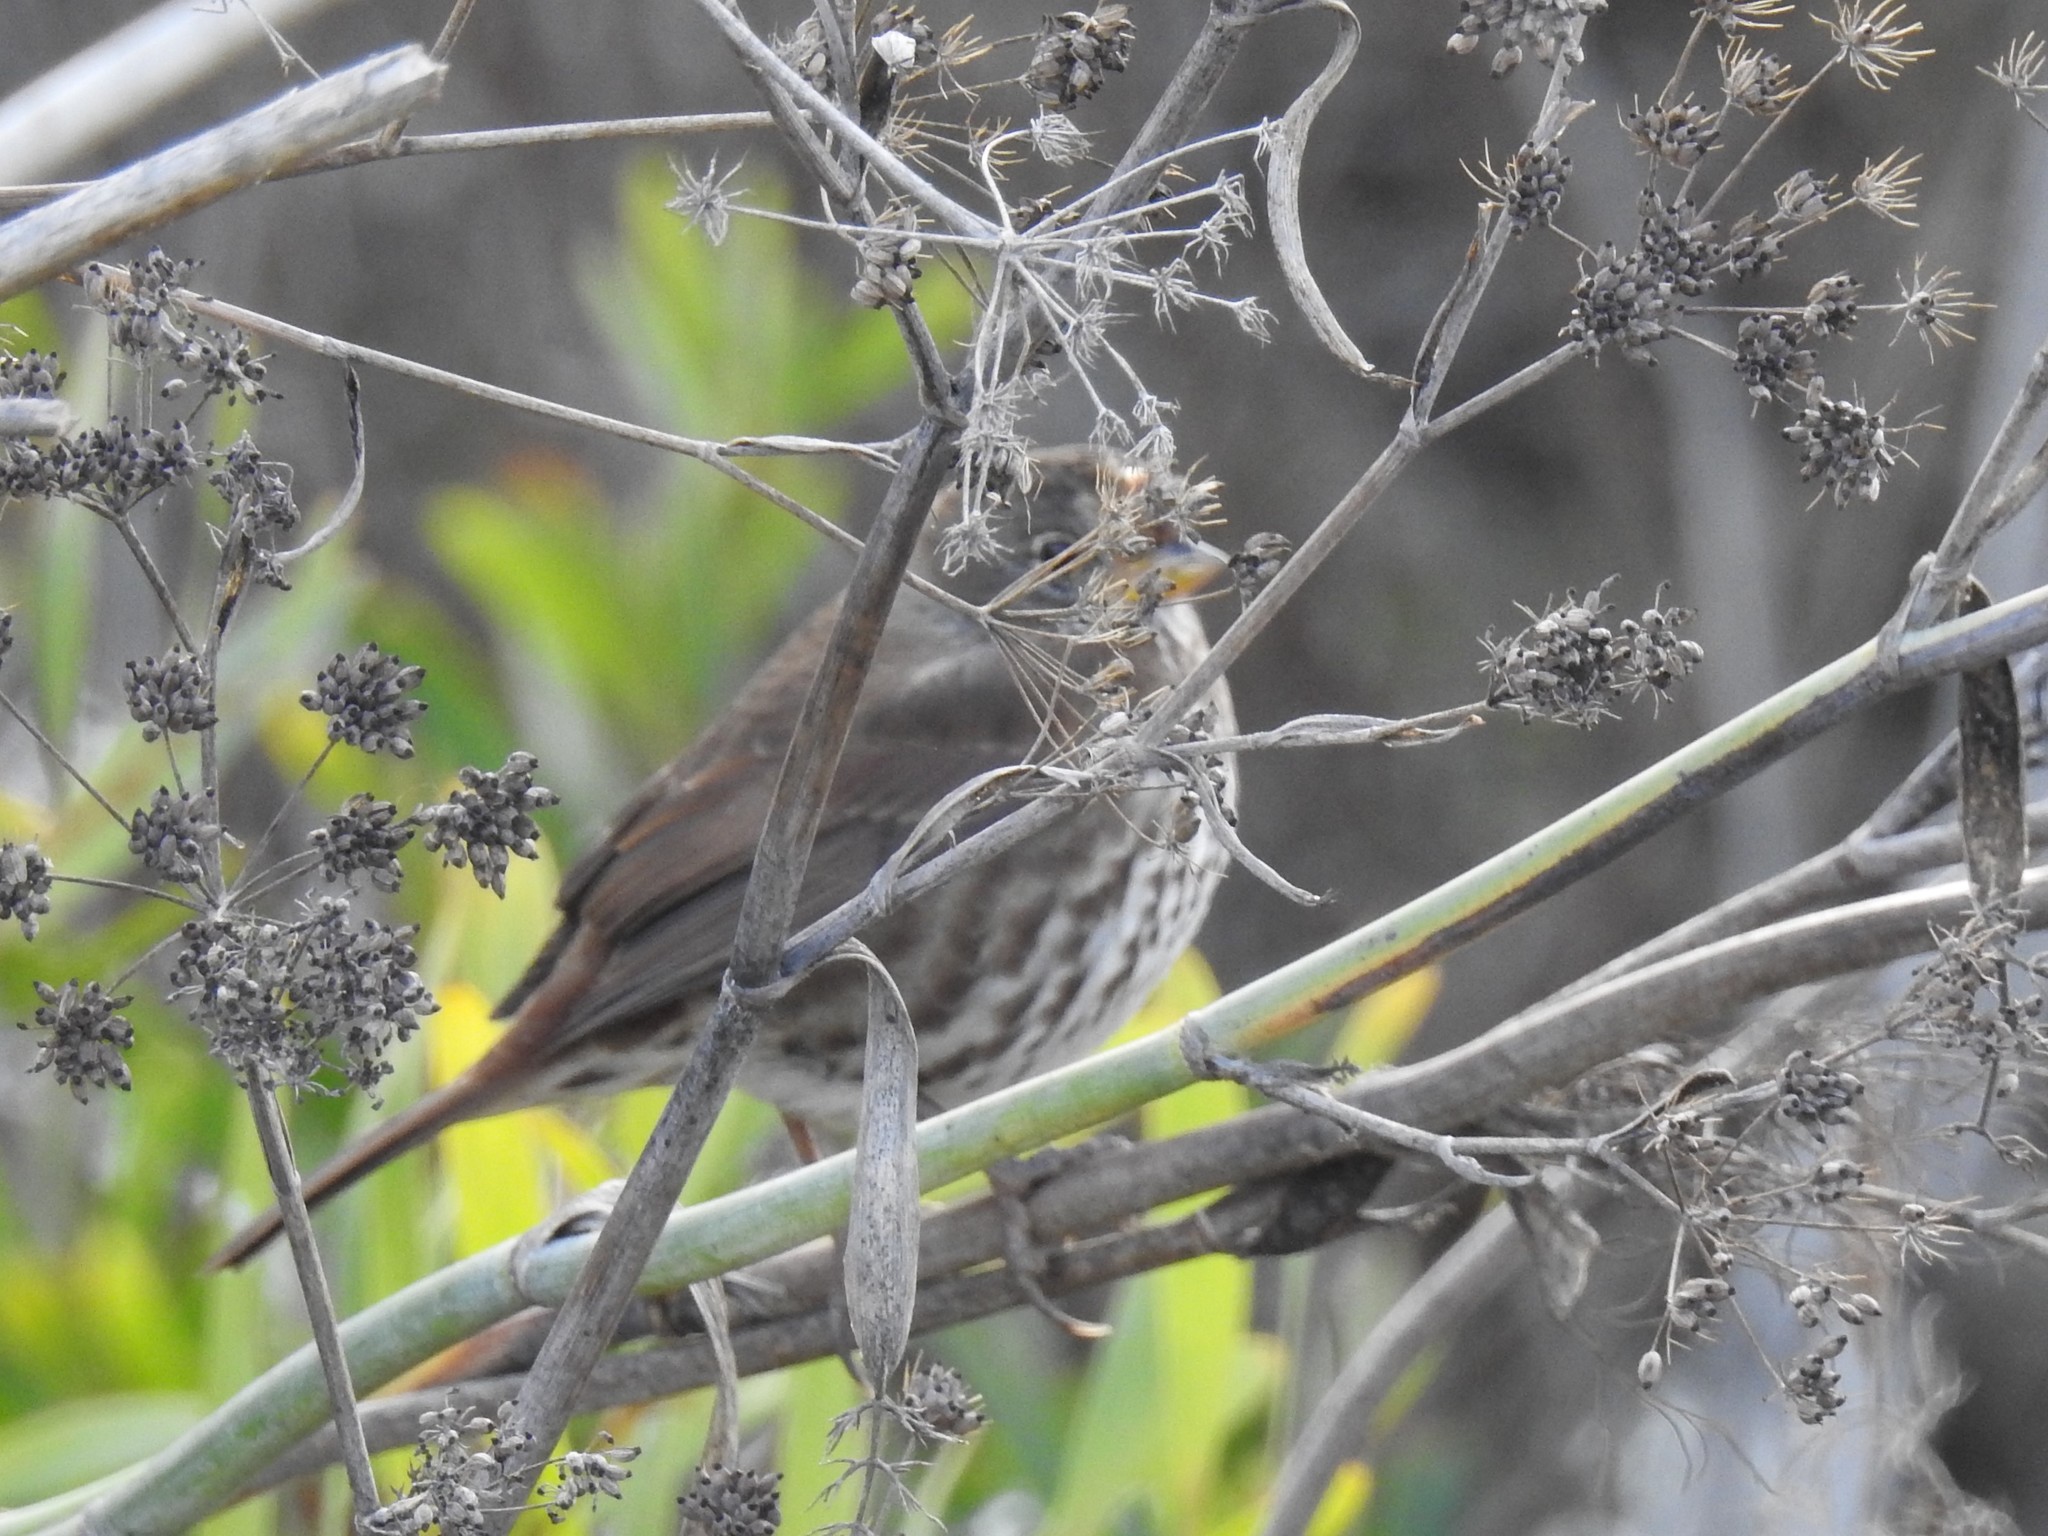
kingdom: Animalia
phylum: Chordata
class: Aves
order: Passeriformes
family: Passerellidae
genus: Passerella
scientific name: Passerella iliaca
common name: Fox sparrow
